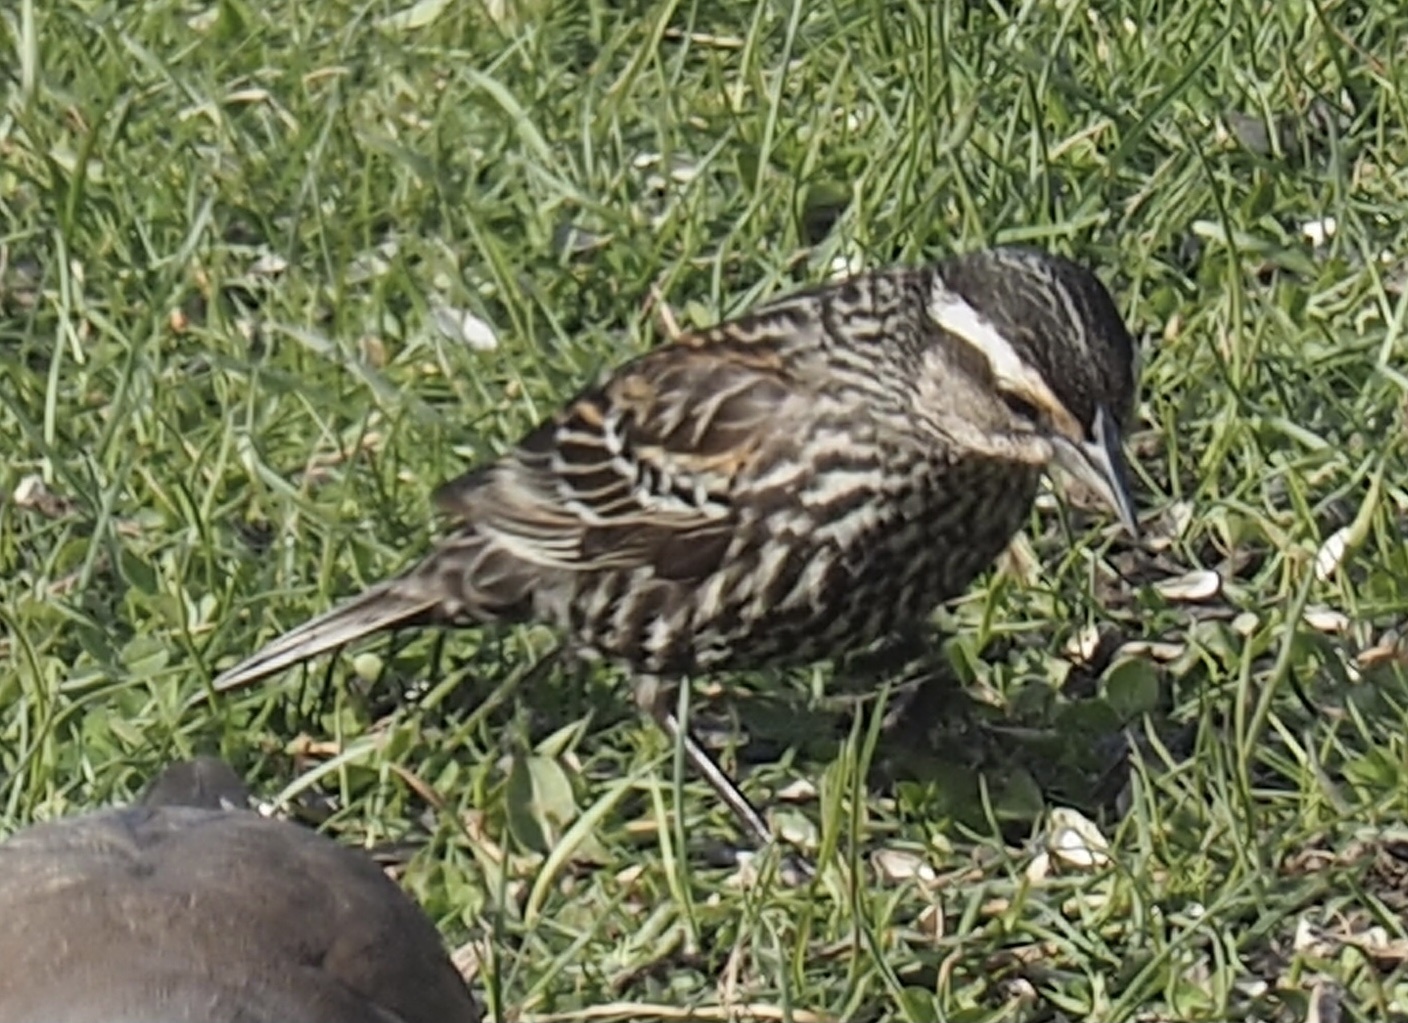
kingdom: Animalia
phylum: Chordata
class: Aves
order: Passeriformes
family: Icteridae
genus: Agelaius
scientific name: Agelaius phoeniceus
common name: Red-winged blackbird
